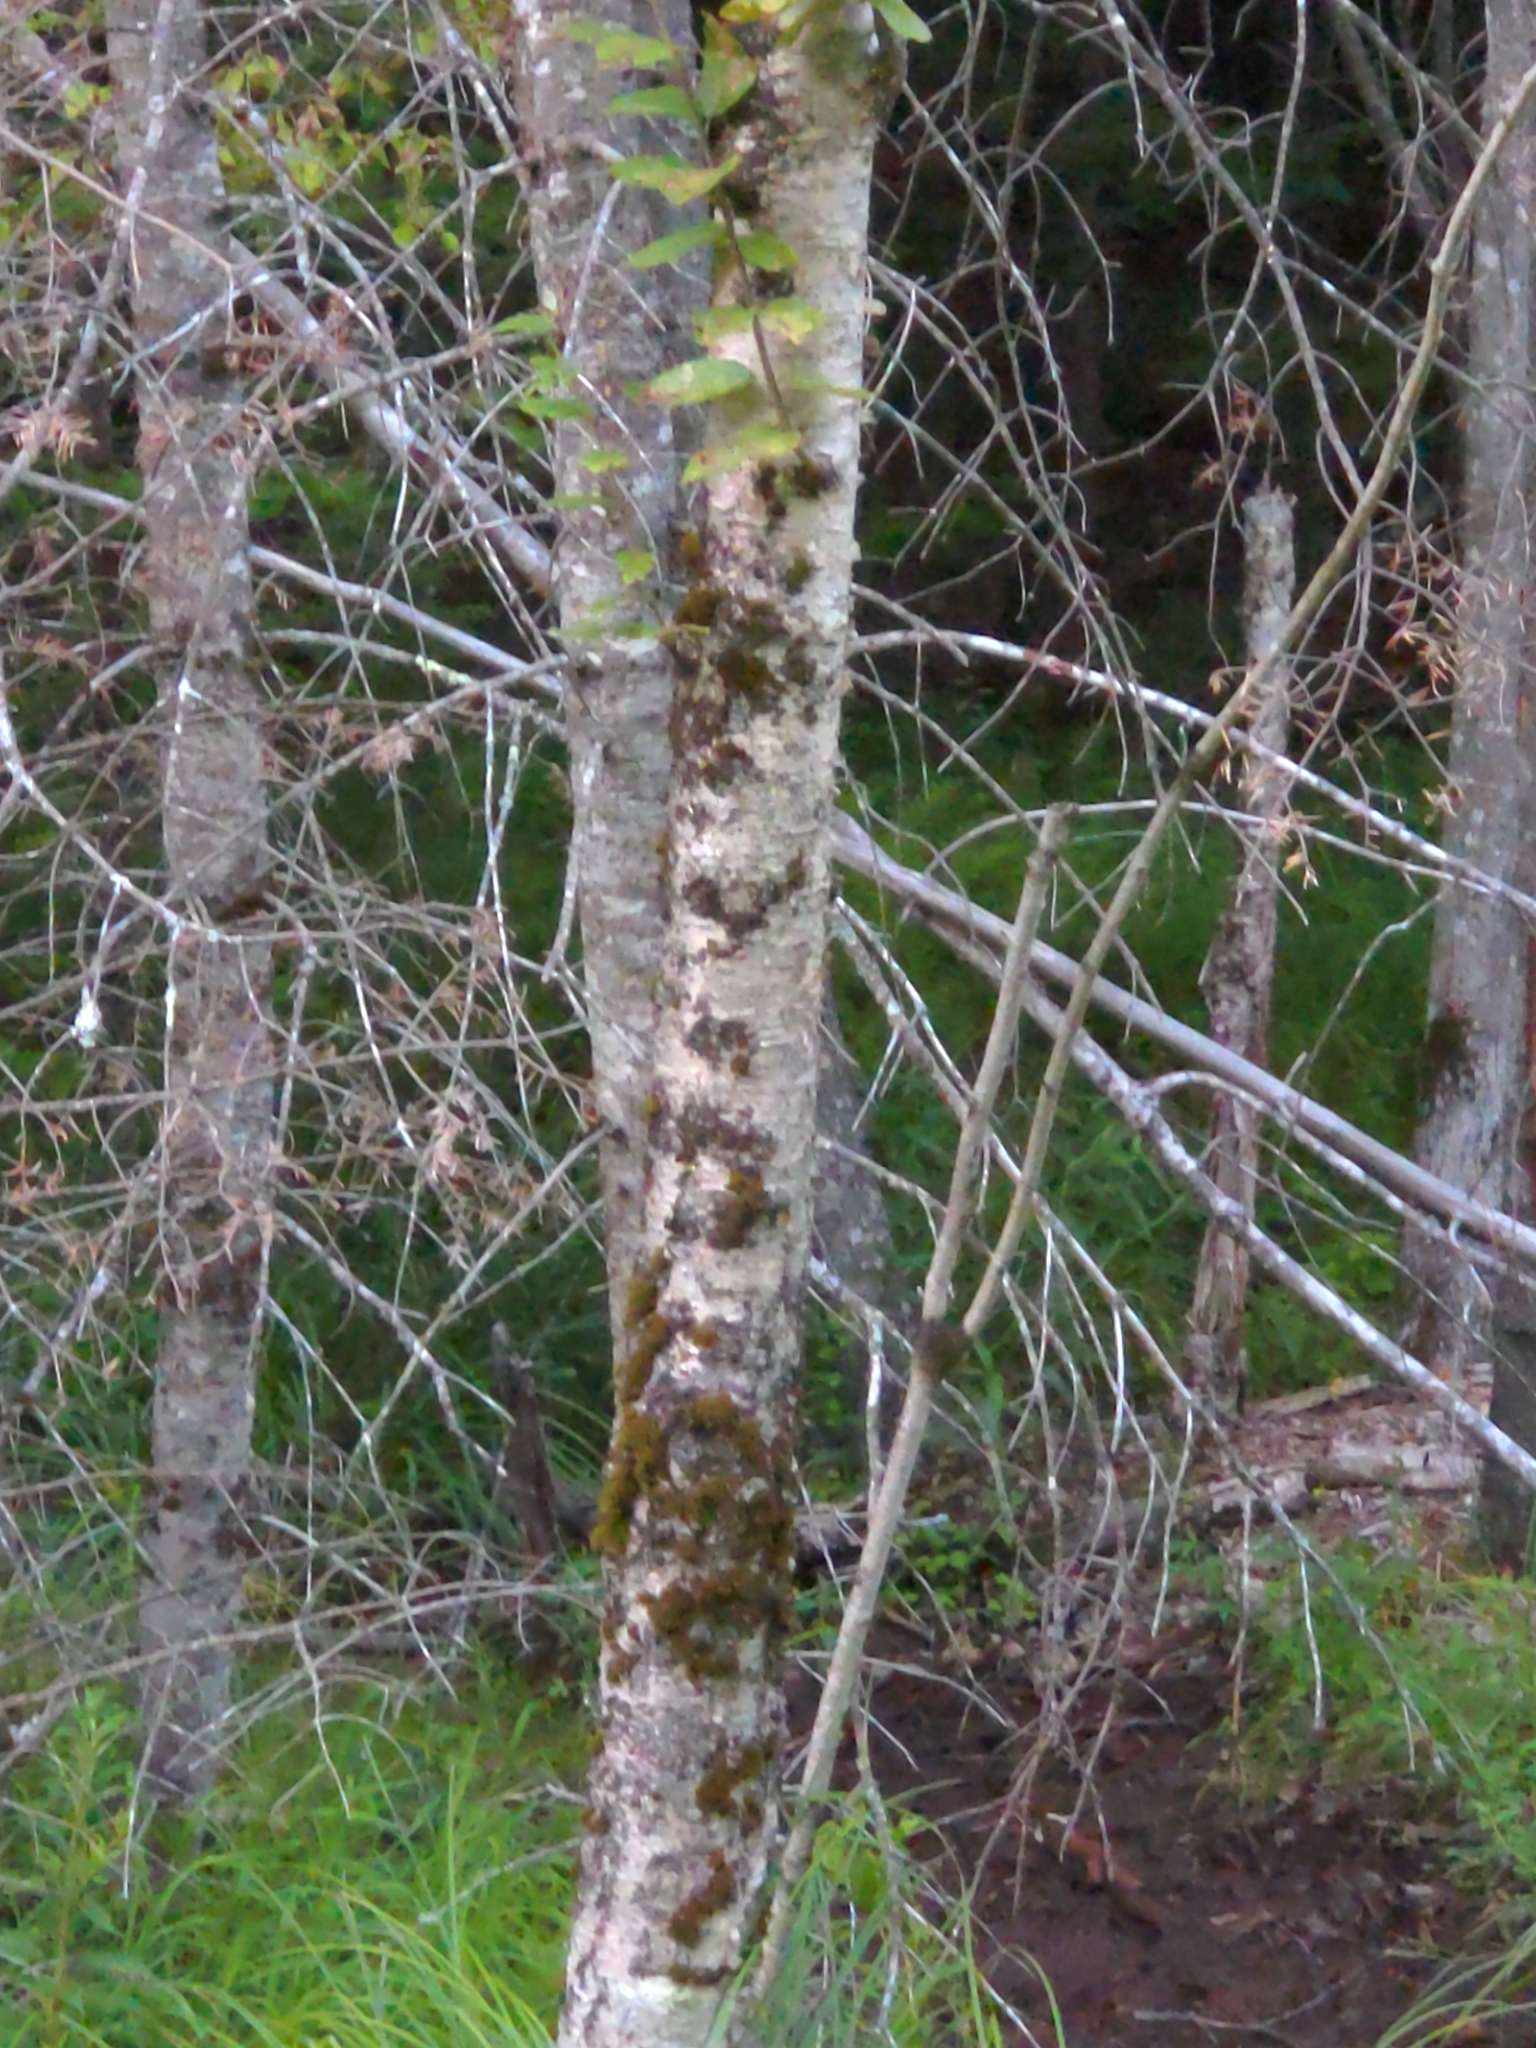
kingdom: Plantae
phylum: Tracheophyta
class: Magnoliopsida
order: Fagales
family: Betulaceae
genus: Betula
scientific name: Betula alleghaniensis
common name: Yellow birch
